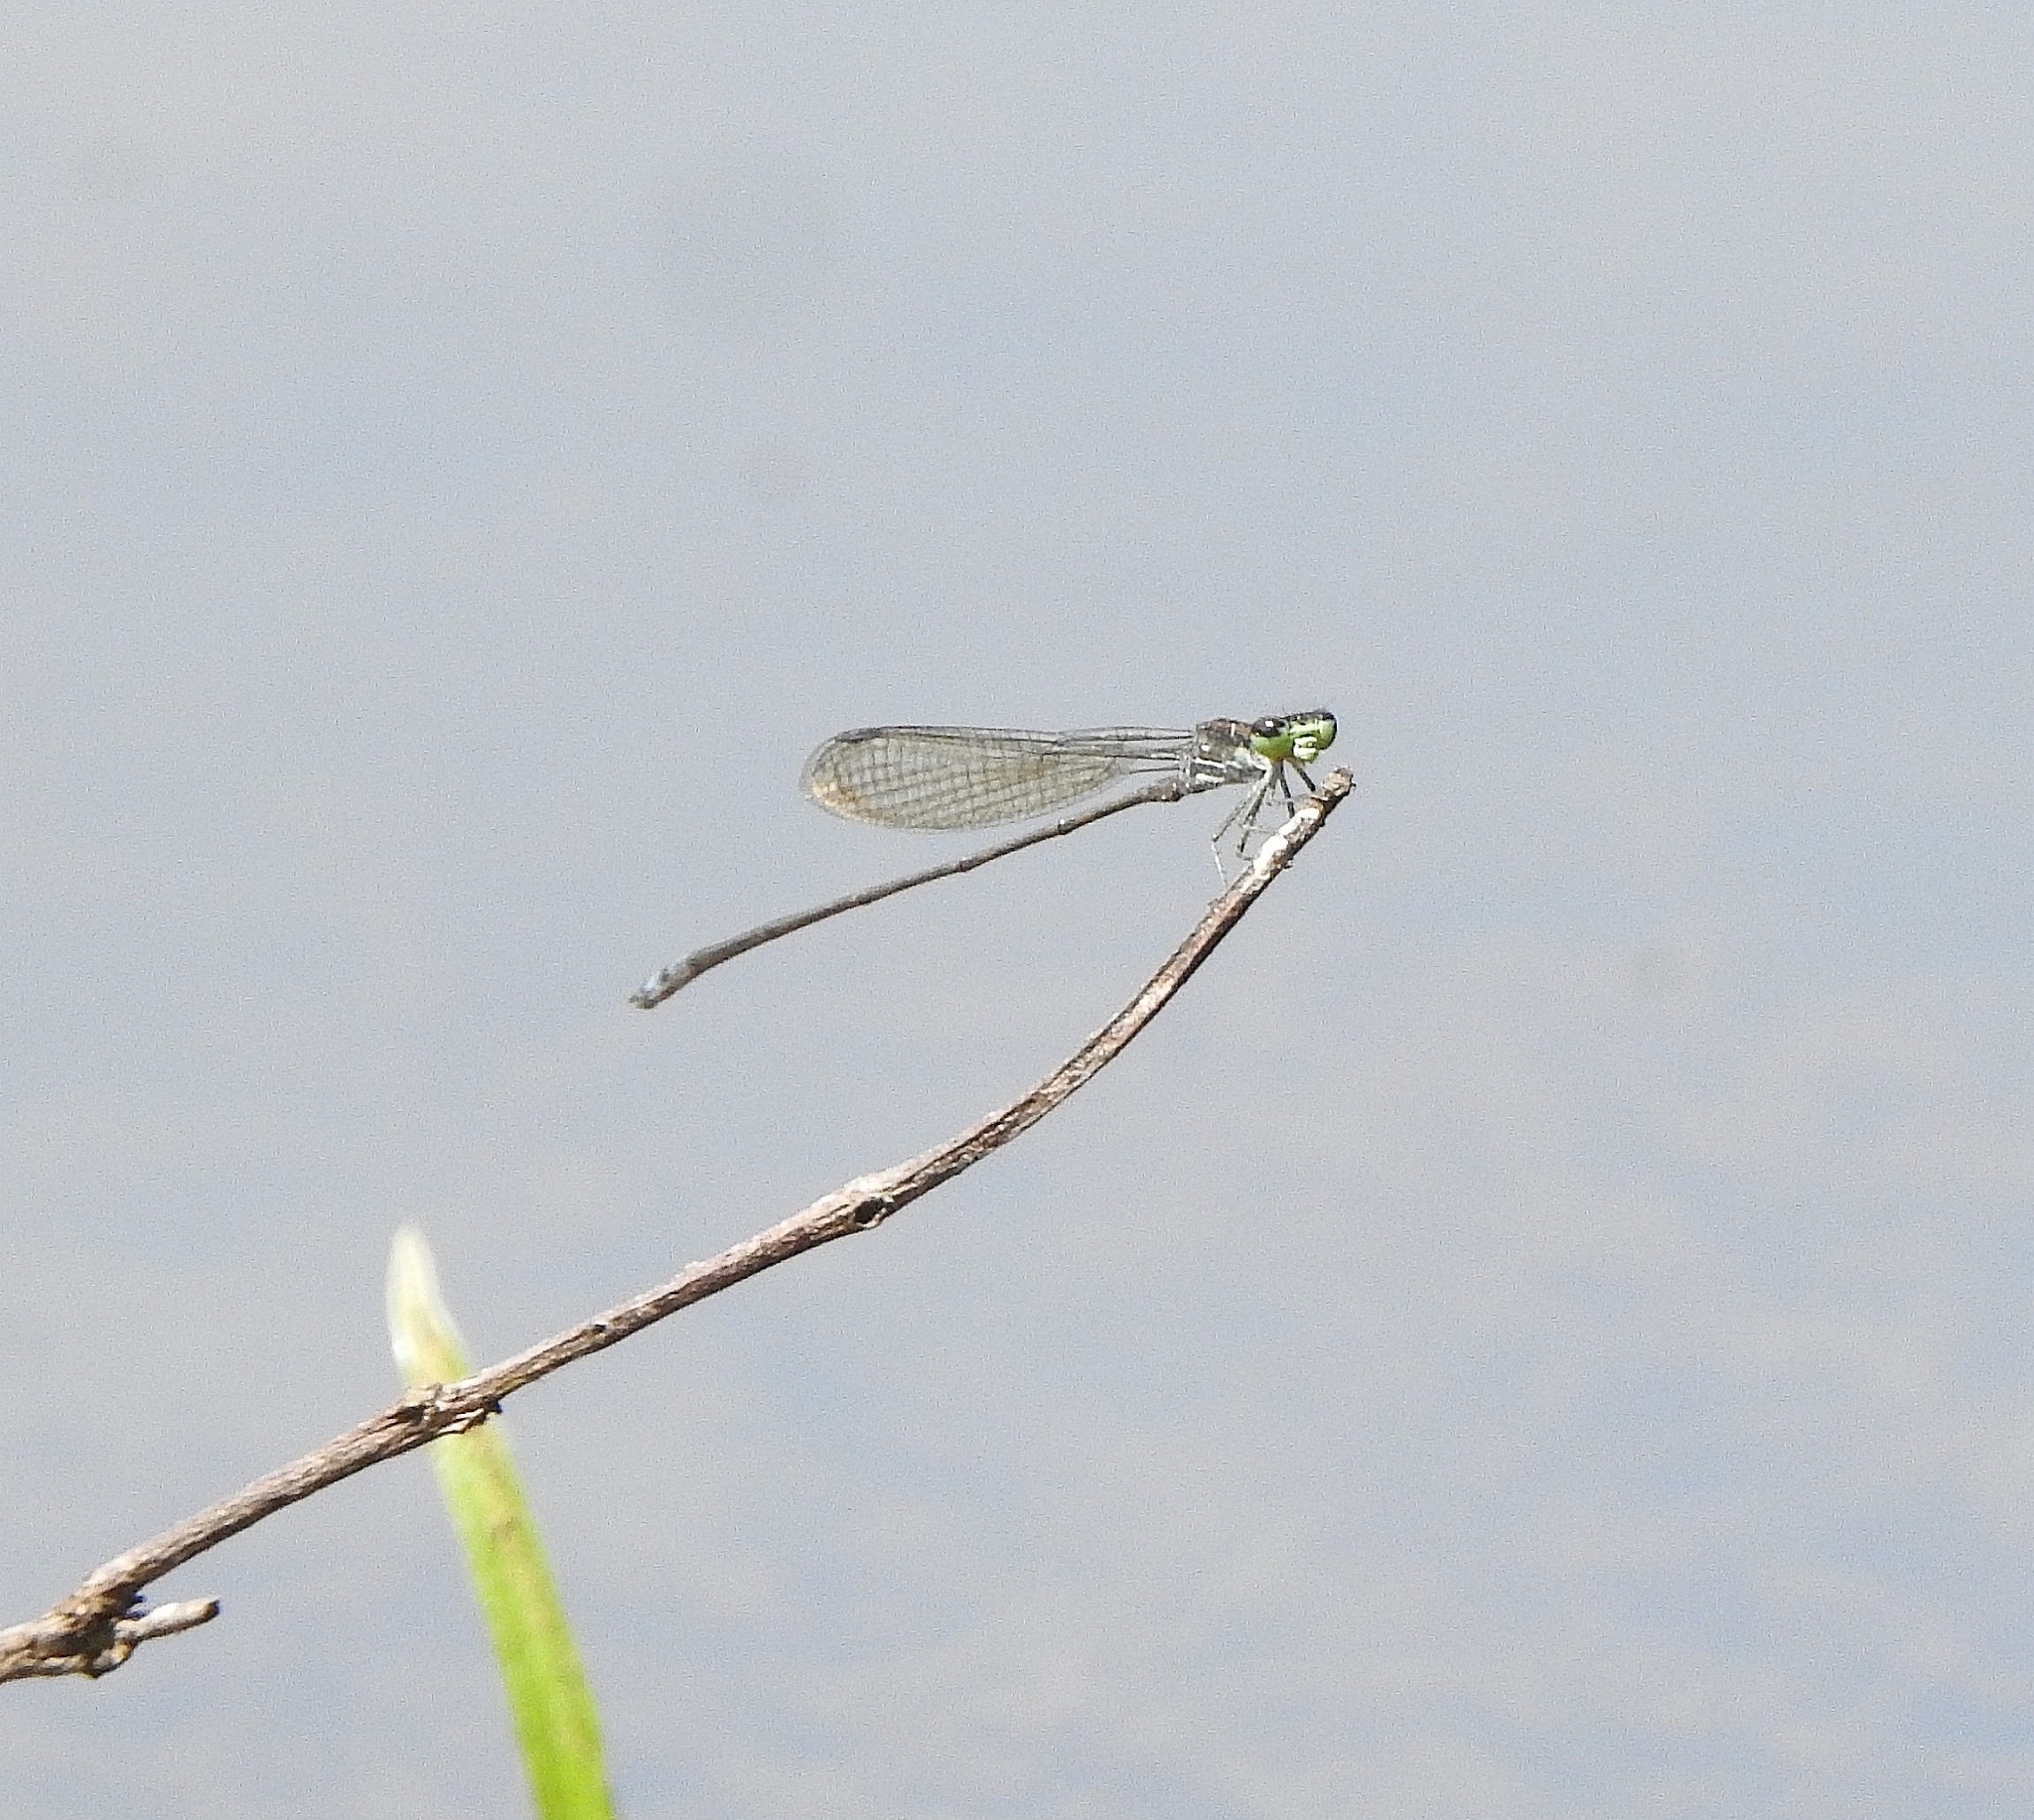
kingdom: Animalia
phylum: Arthropoda
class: Insecta
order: Odonata
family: Coenagrionidae
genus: Pseudagrion
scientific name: Pseudagrion indicum
